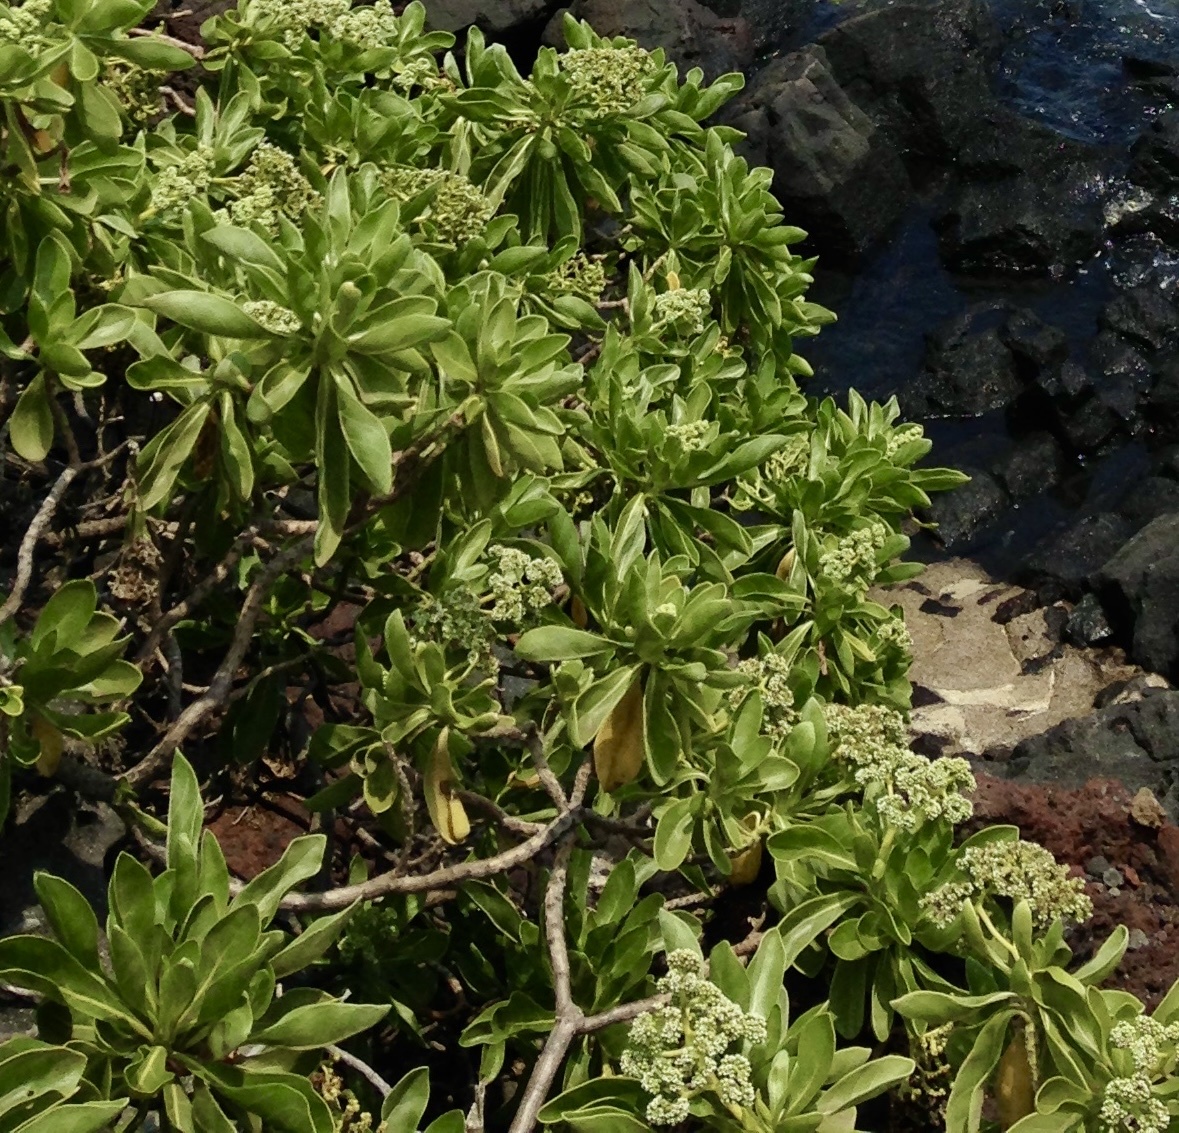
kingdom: Plantae
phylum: Tracheophyta
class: Magnoliopsida
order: Boraginales
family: Heliotropiaceae
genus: Heliotropium
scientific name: Heliotropium velutinum
